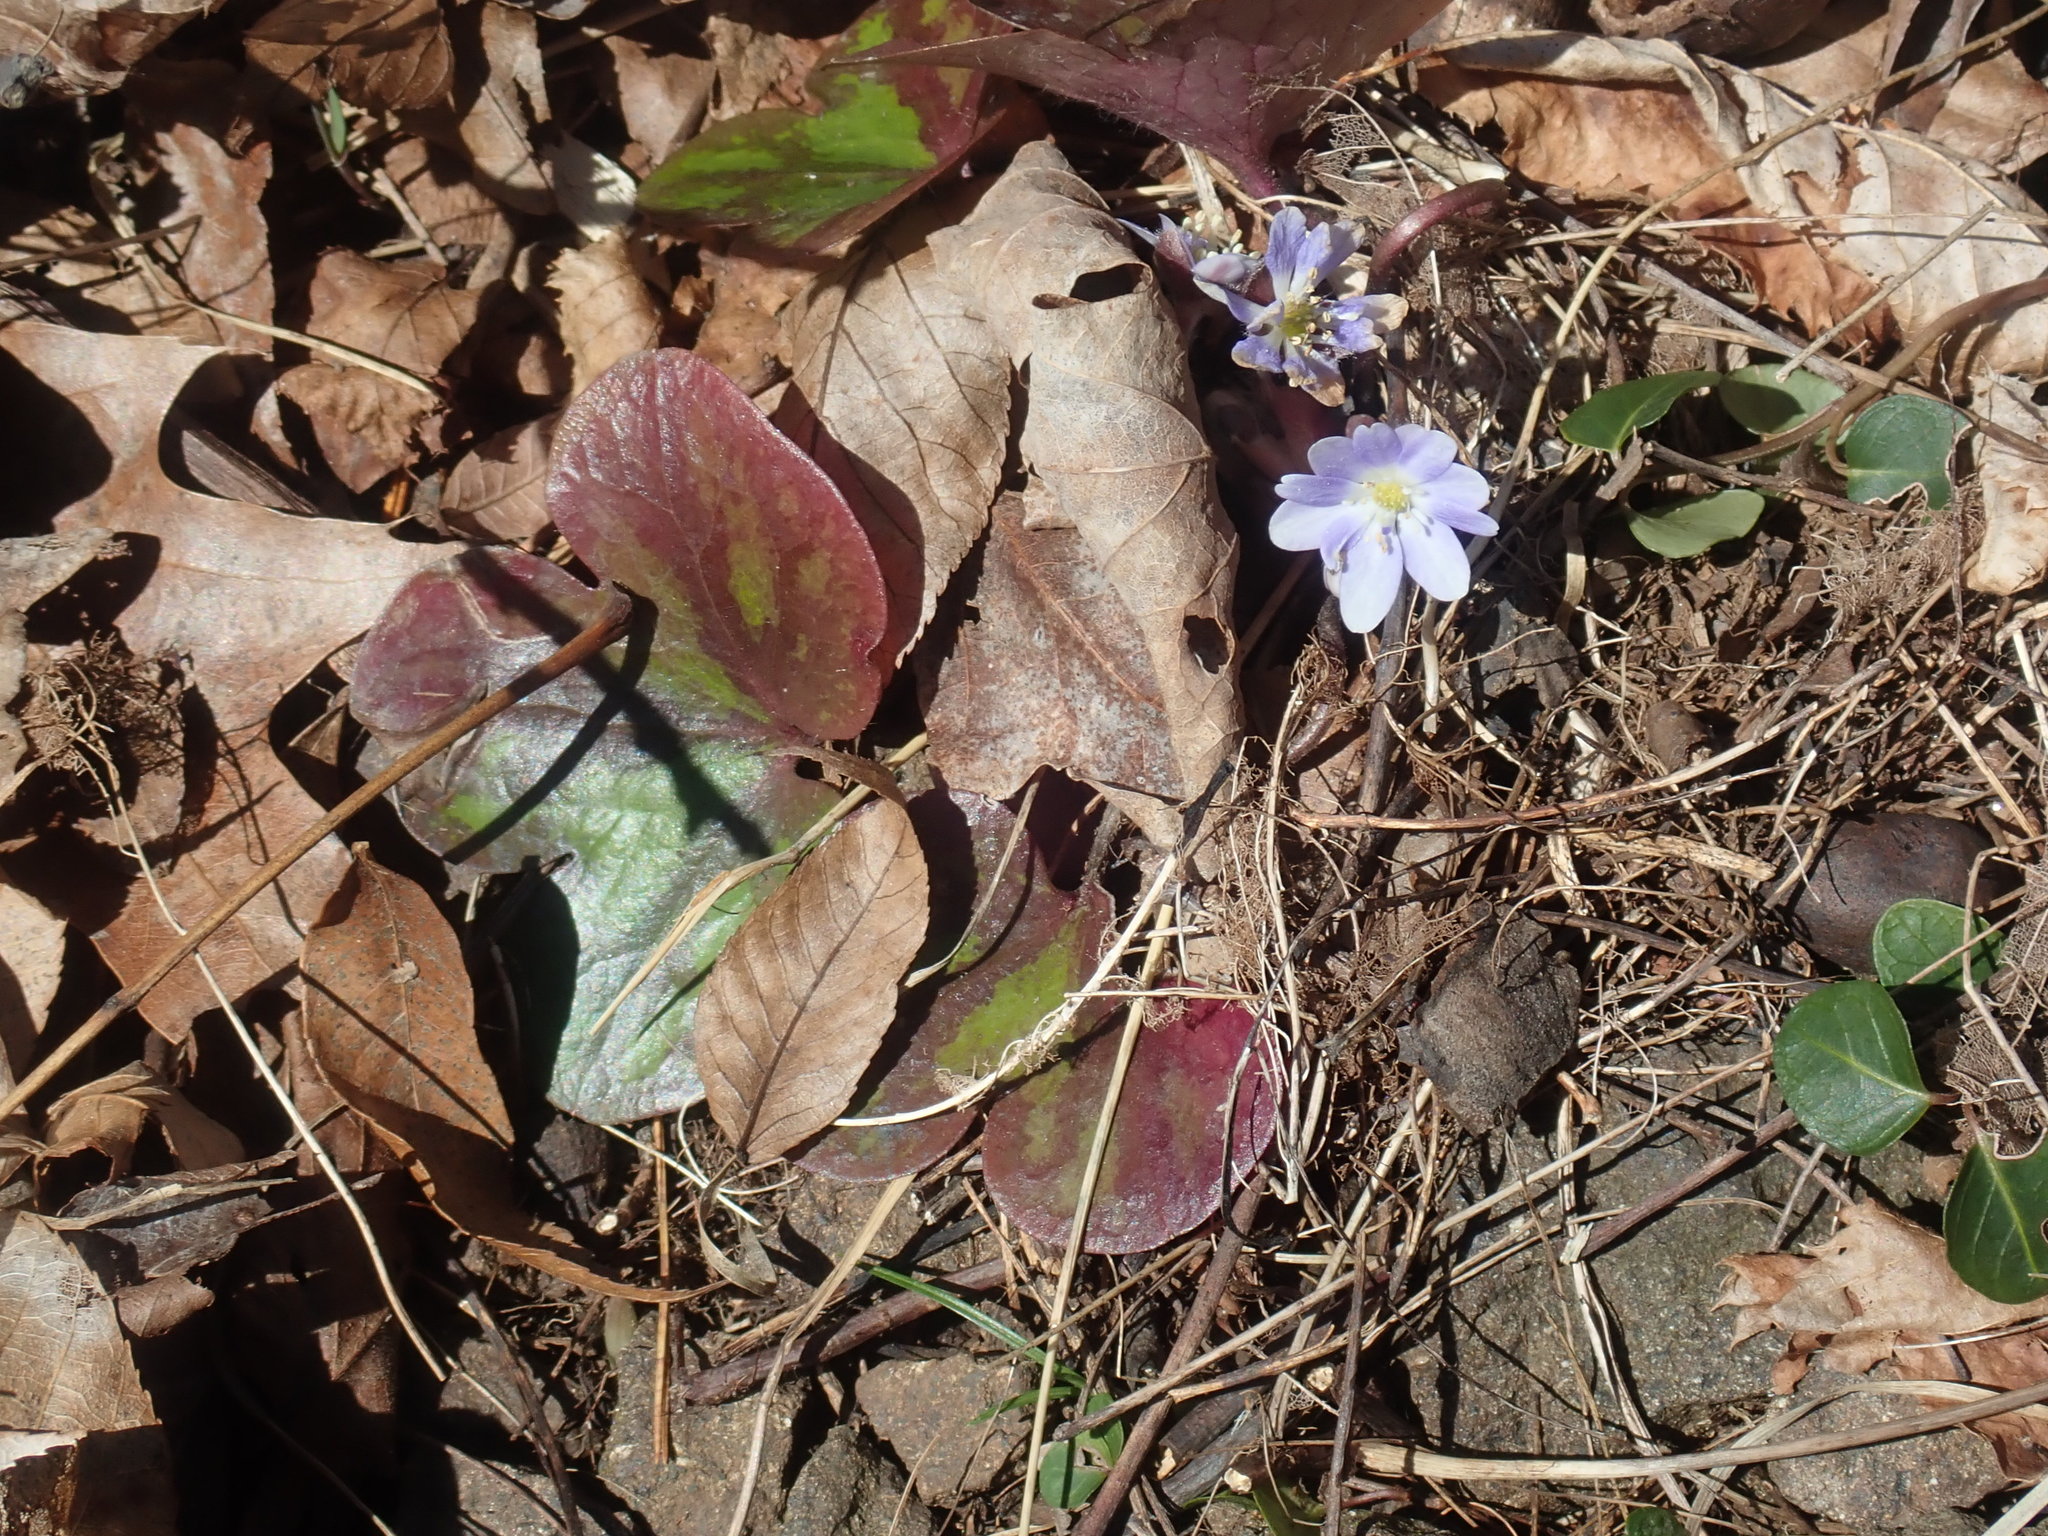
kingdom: Plantae
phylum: Tracheophyta
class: Magnoliopsida
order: Ranunculales
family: Ranunculaceae
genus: Hepatica
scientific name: Hepatica americana
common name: American hepatica
